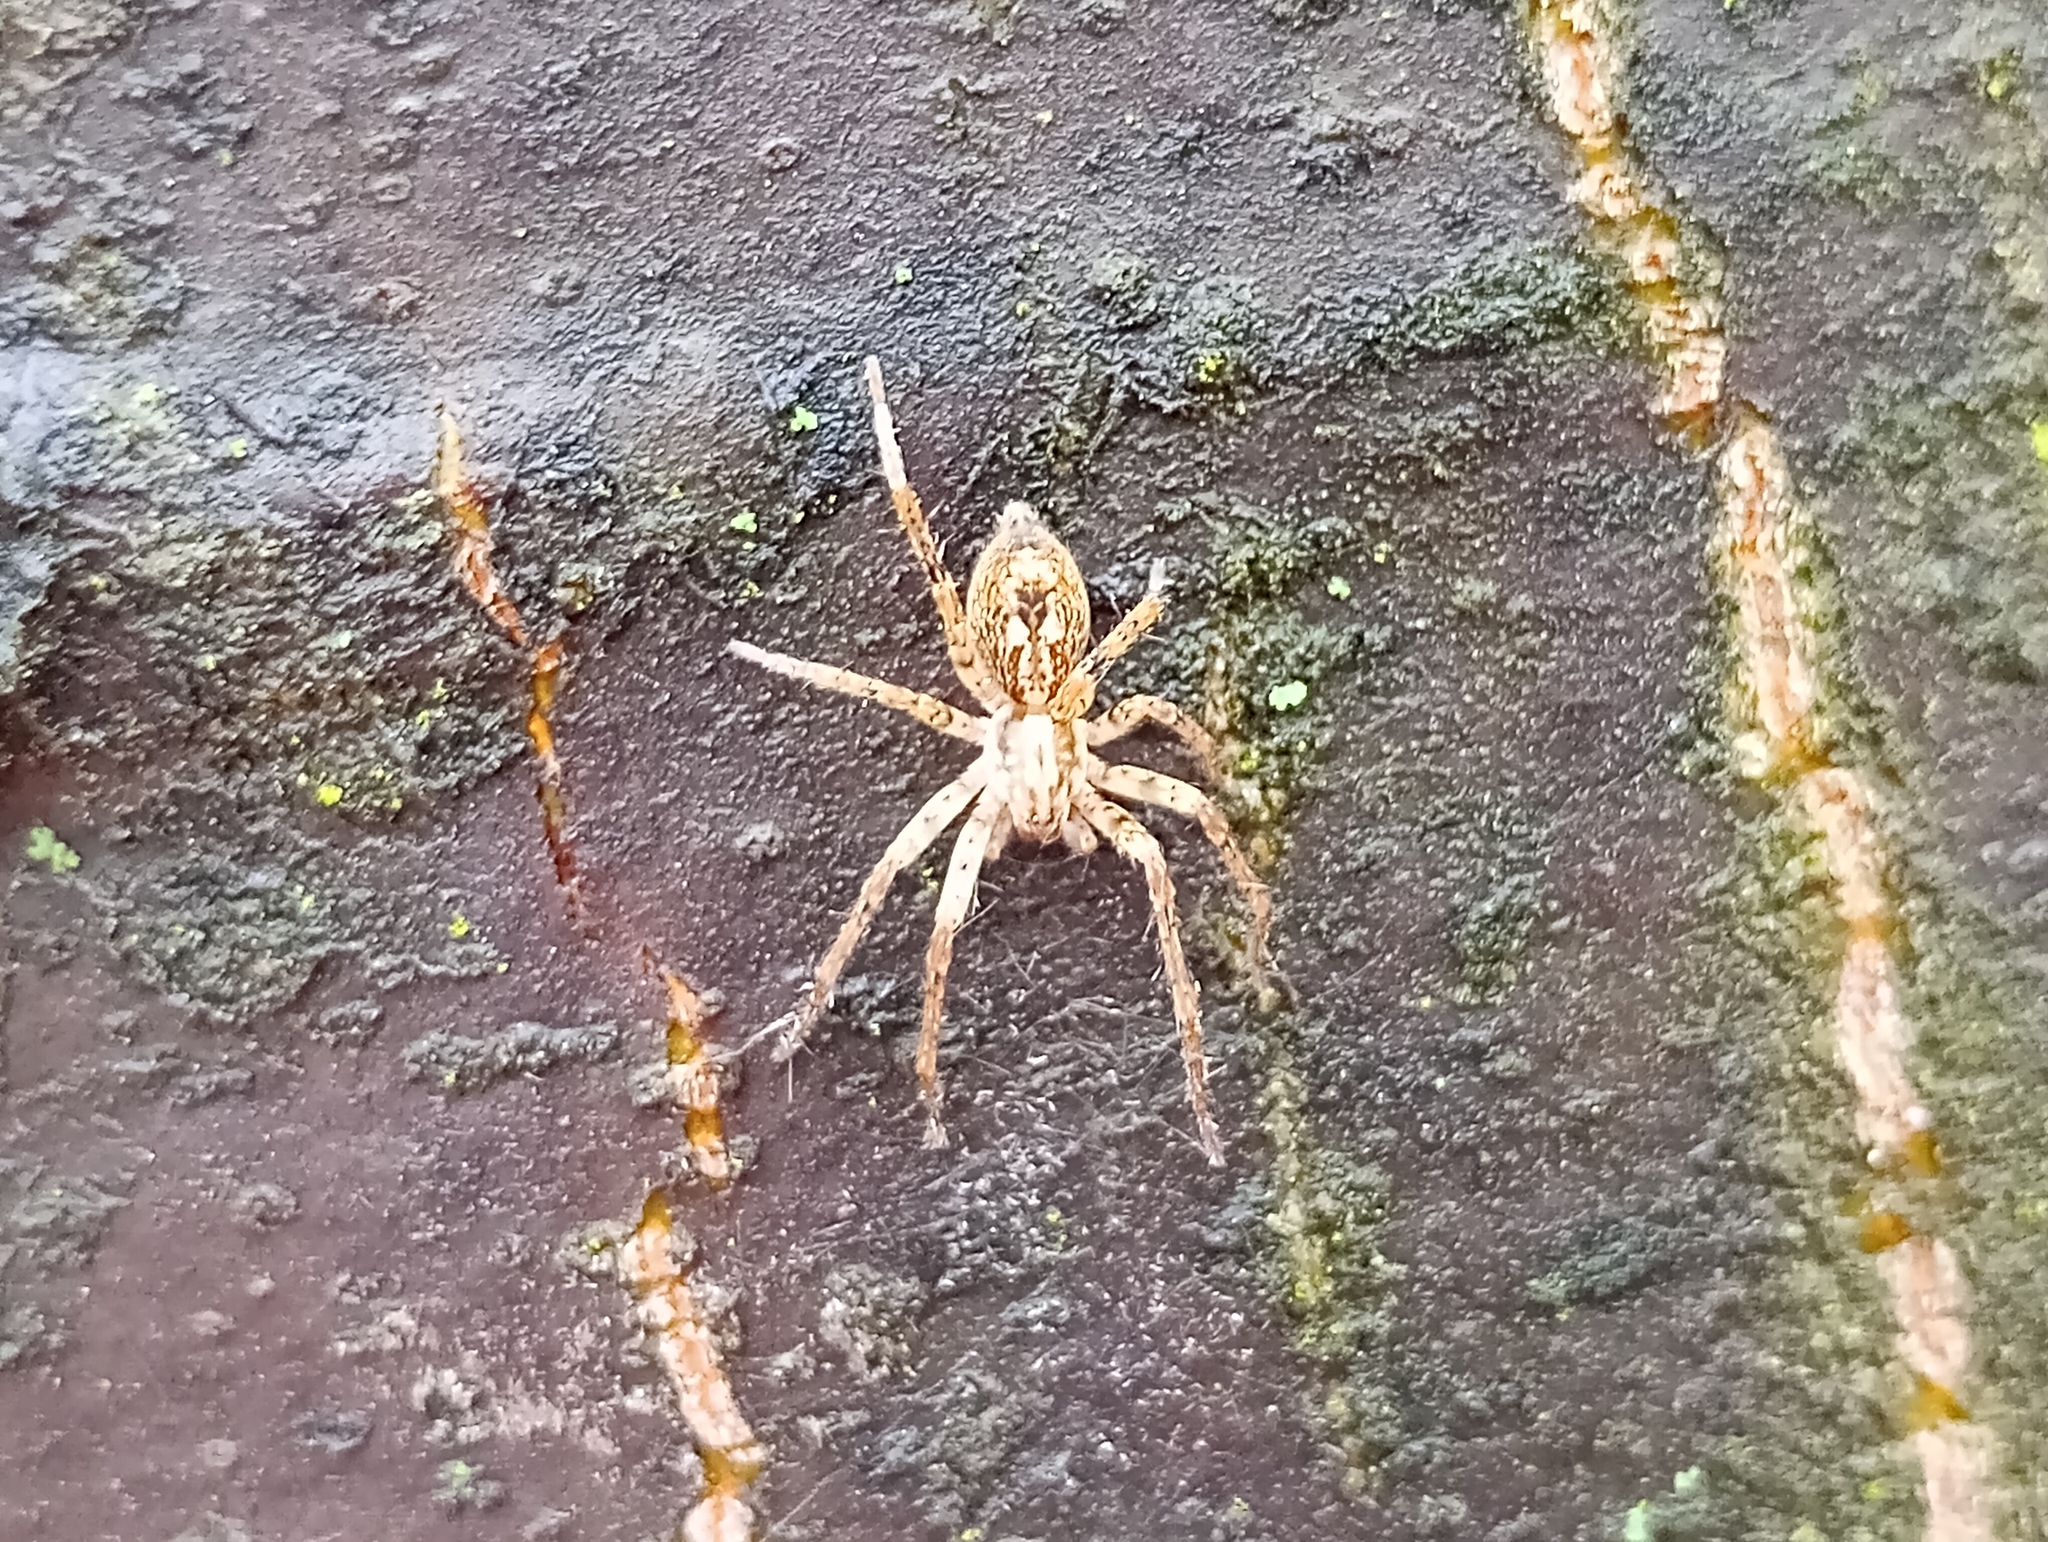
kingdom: Animalia
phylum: Arthropoda
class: Arachnida
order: Araneae
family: Anyphaenidae
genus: Anyphaena
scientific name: Anyphaena accentuata
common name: Buzzing spider
